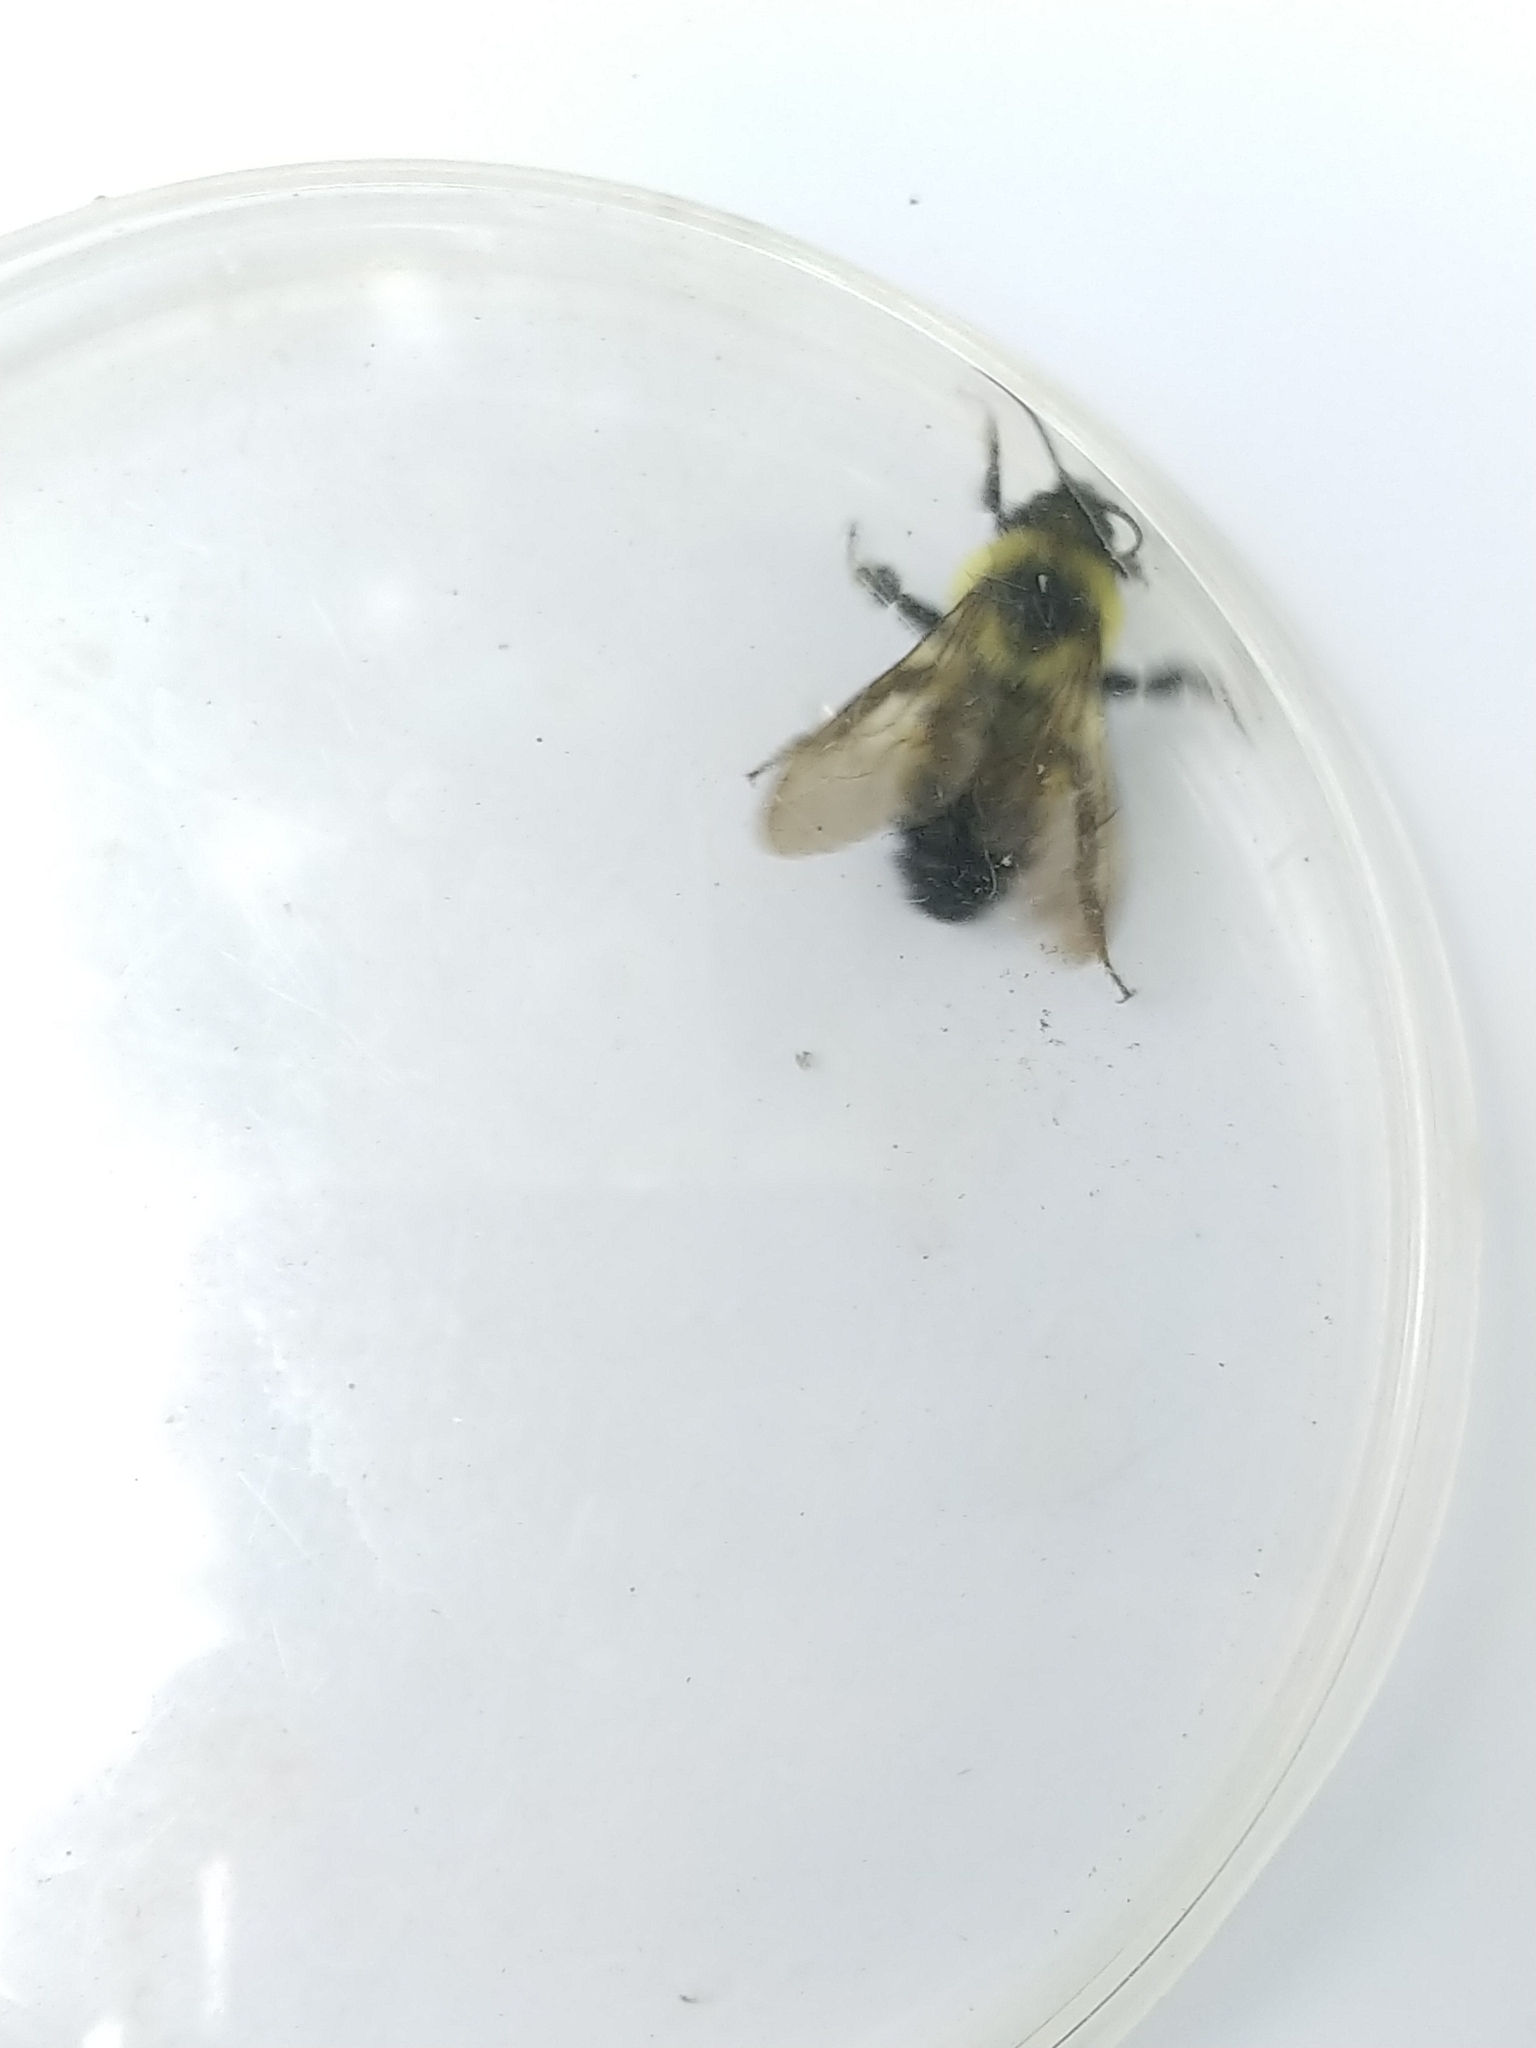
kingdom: Animalia
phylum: Arthropoda
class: Insecta
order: Hymenoptera
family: Apidae
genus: Bombus
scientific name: Bombus citrinus
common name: Lemon cuckoo bumble bee
